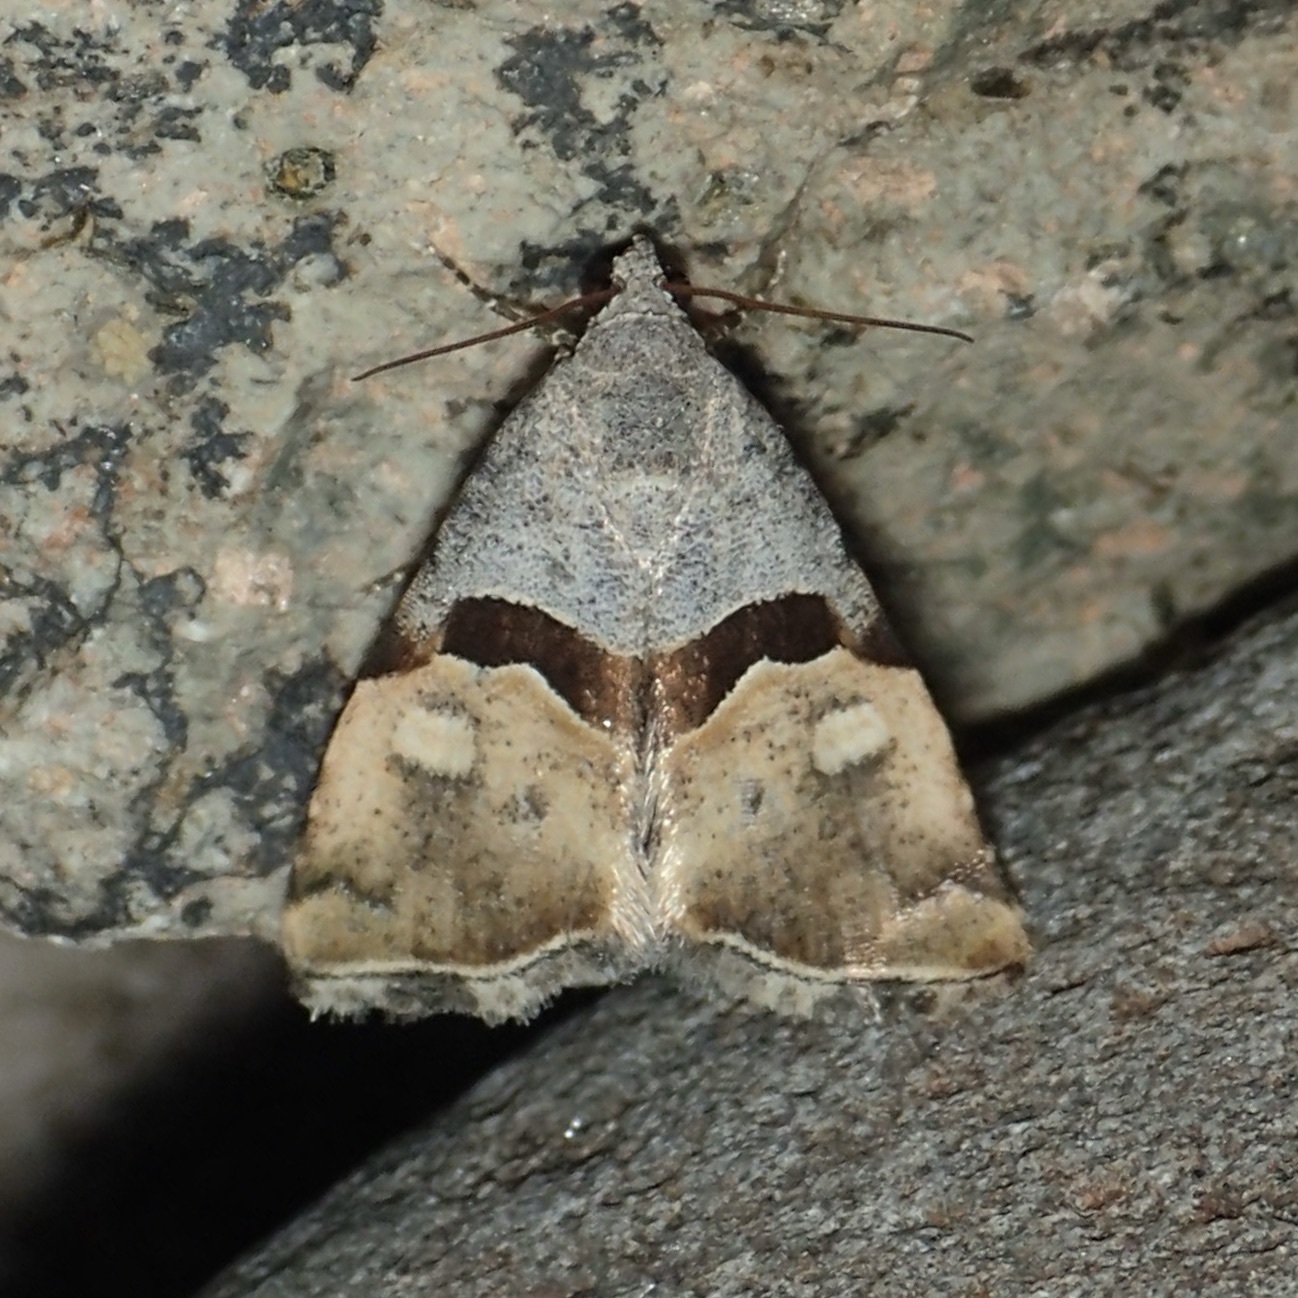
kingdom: Animalia
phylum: Arthropoda
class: Insecta
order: Lepidoptera
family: Noctuidae
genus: Cobubatha
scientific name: Cobubatha lixiva
